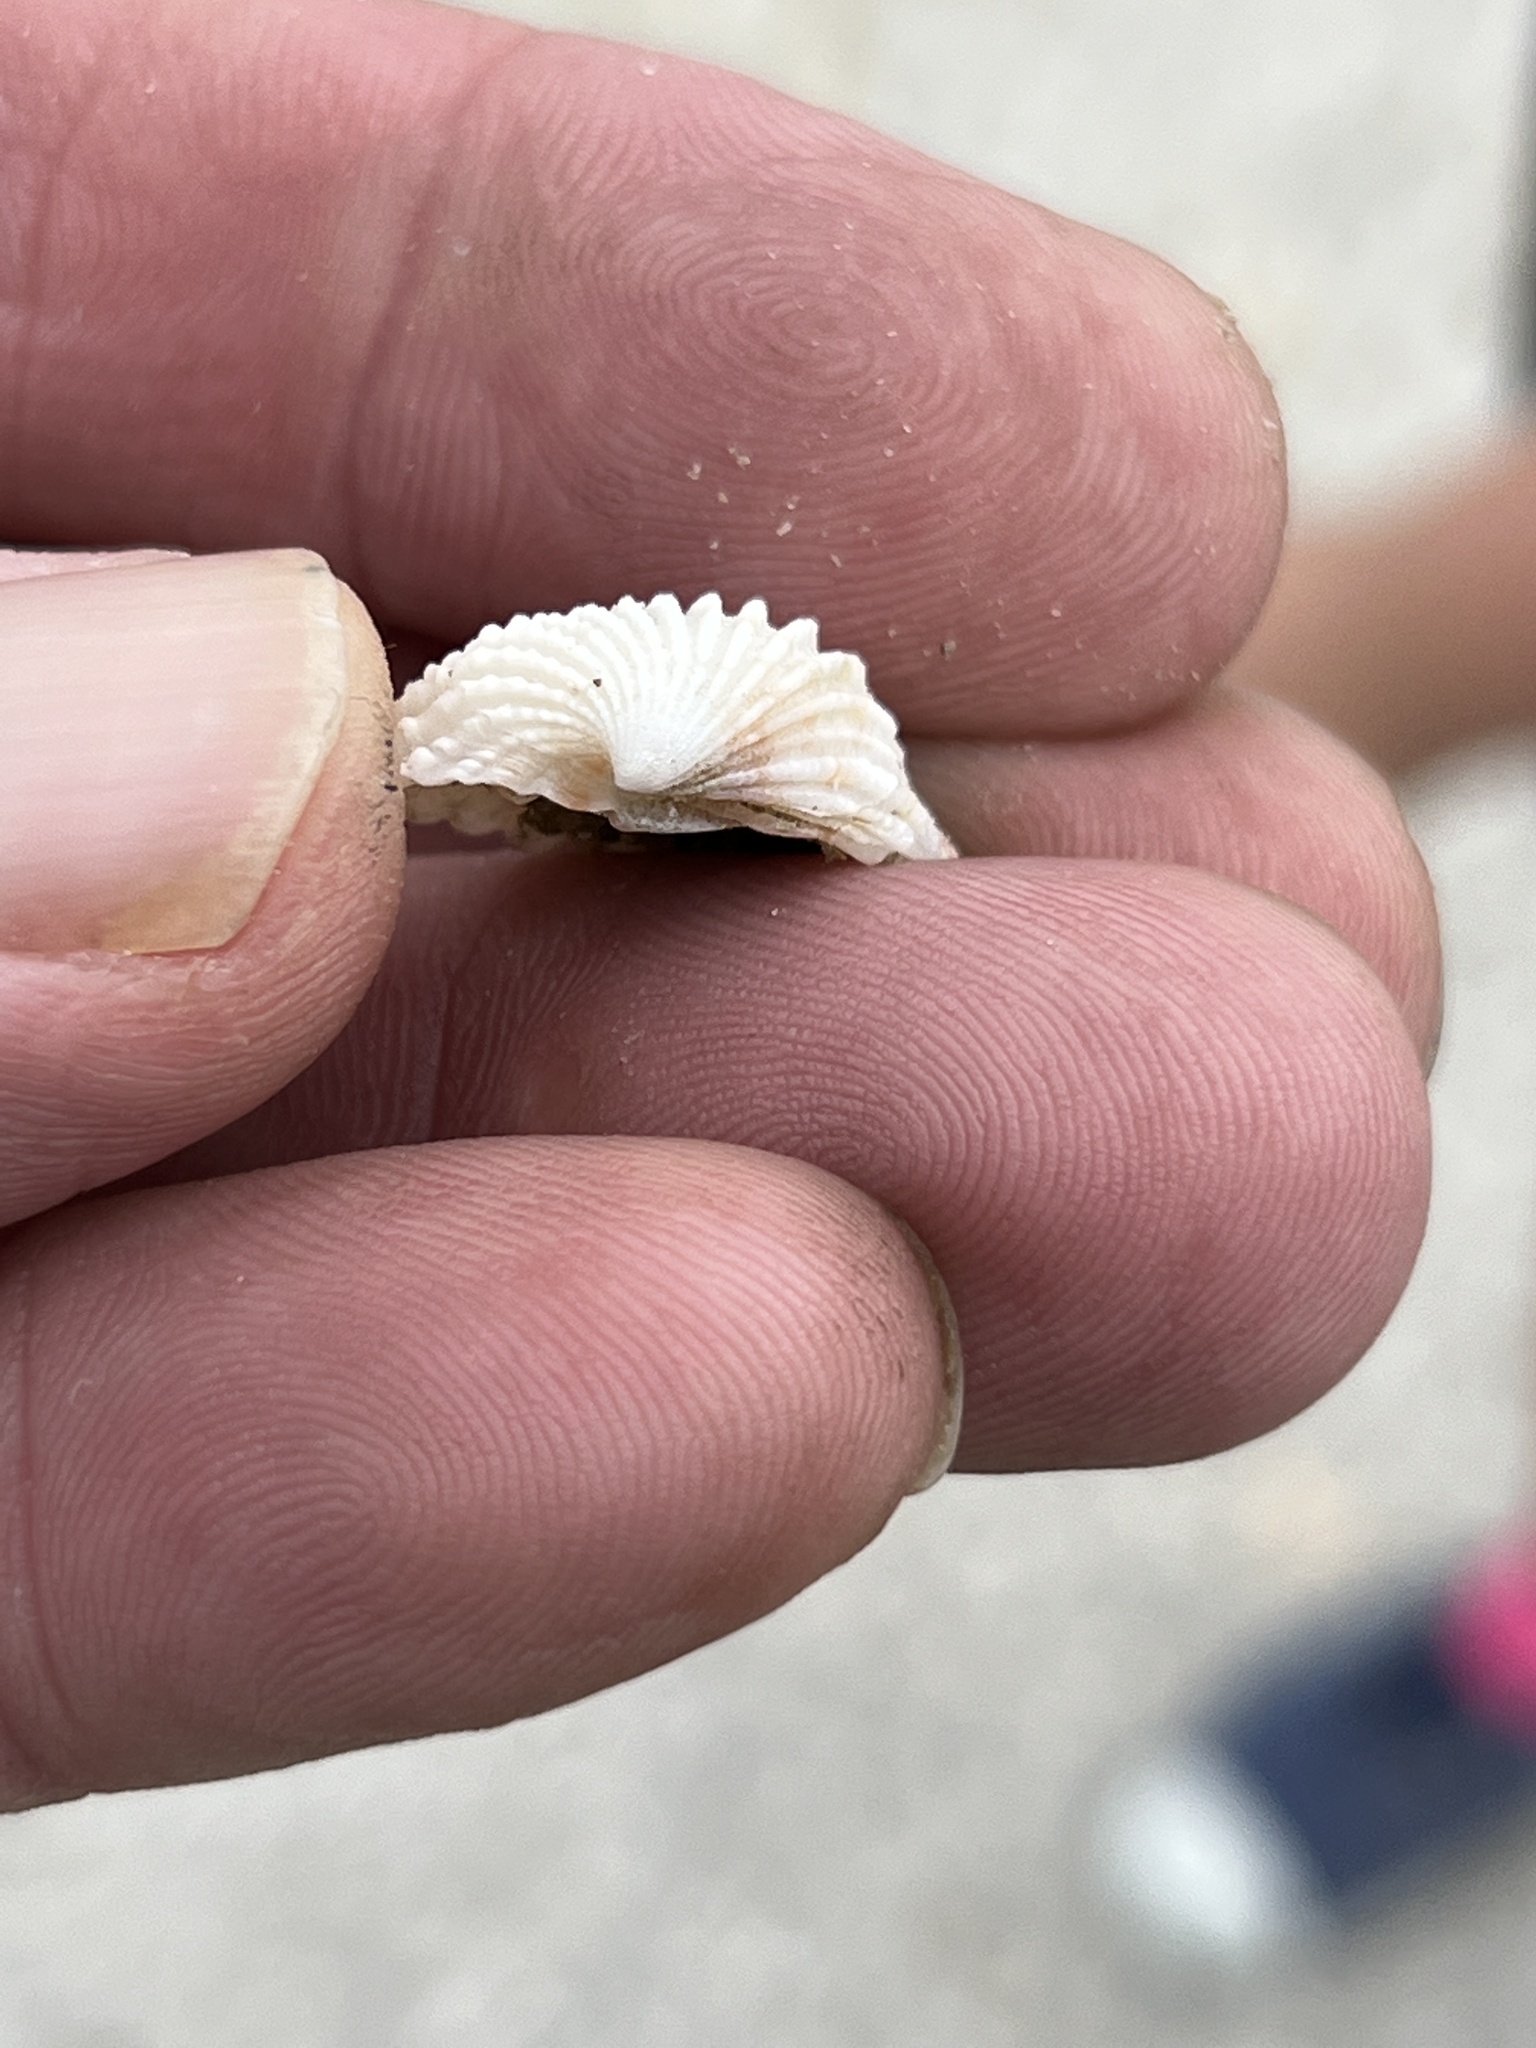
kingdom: Animalia
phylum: Mollusca
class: Bivalvia
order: Carditida
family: Carditidae
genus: Cardites
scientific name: Cardites floridanus
